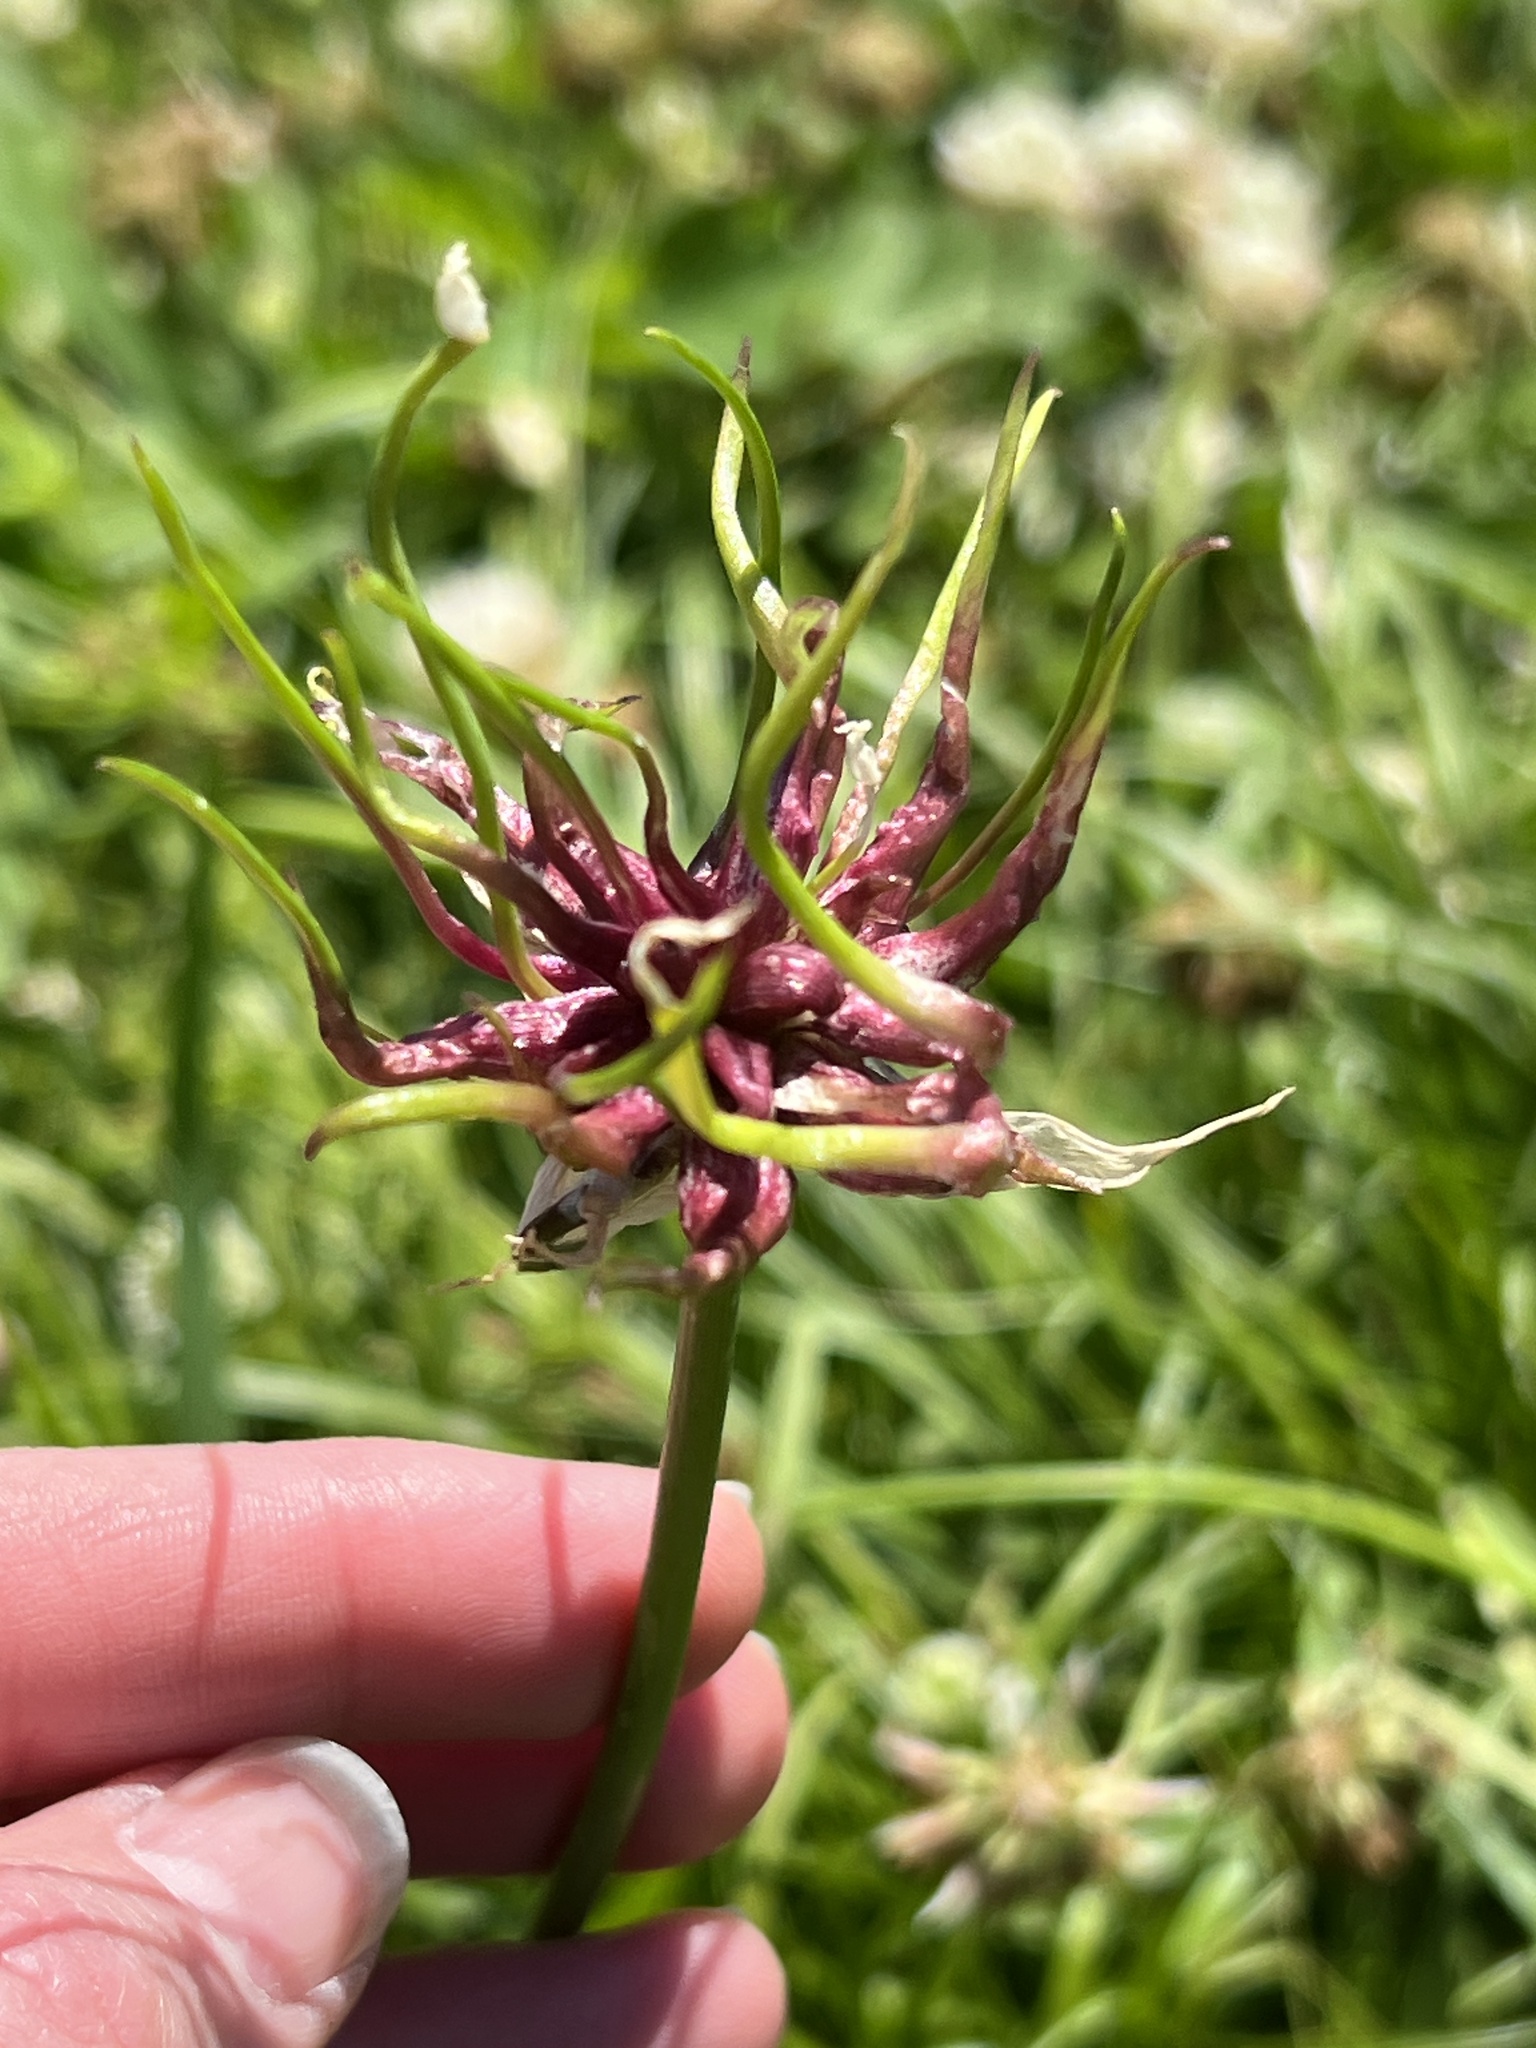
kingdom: Plantae
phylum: Tracheophyta
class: Liliopsida
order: Asparagales
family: Amaryllidaceae
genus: Allium
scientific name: Allium canadense
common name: Meadow garlic
